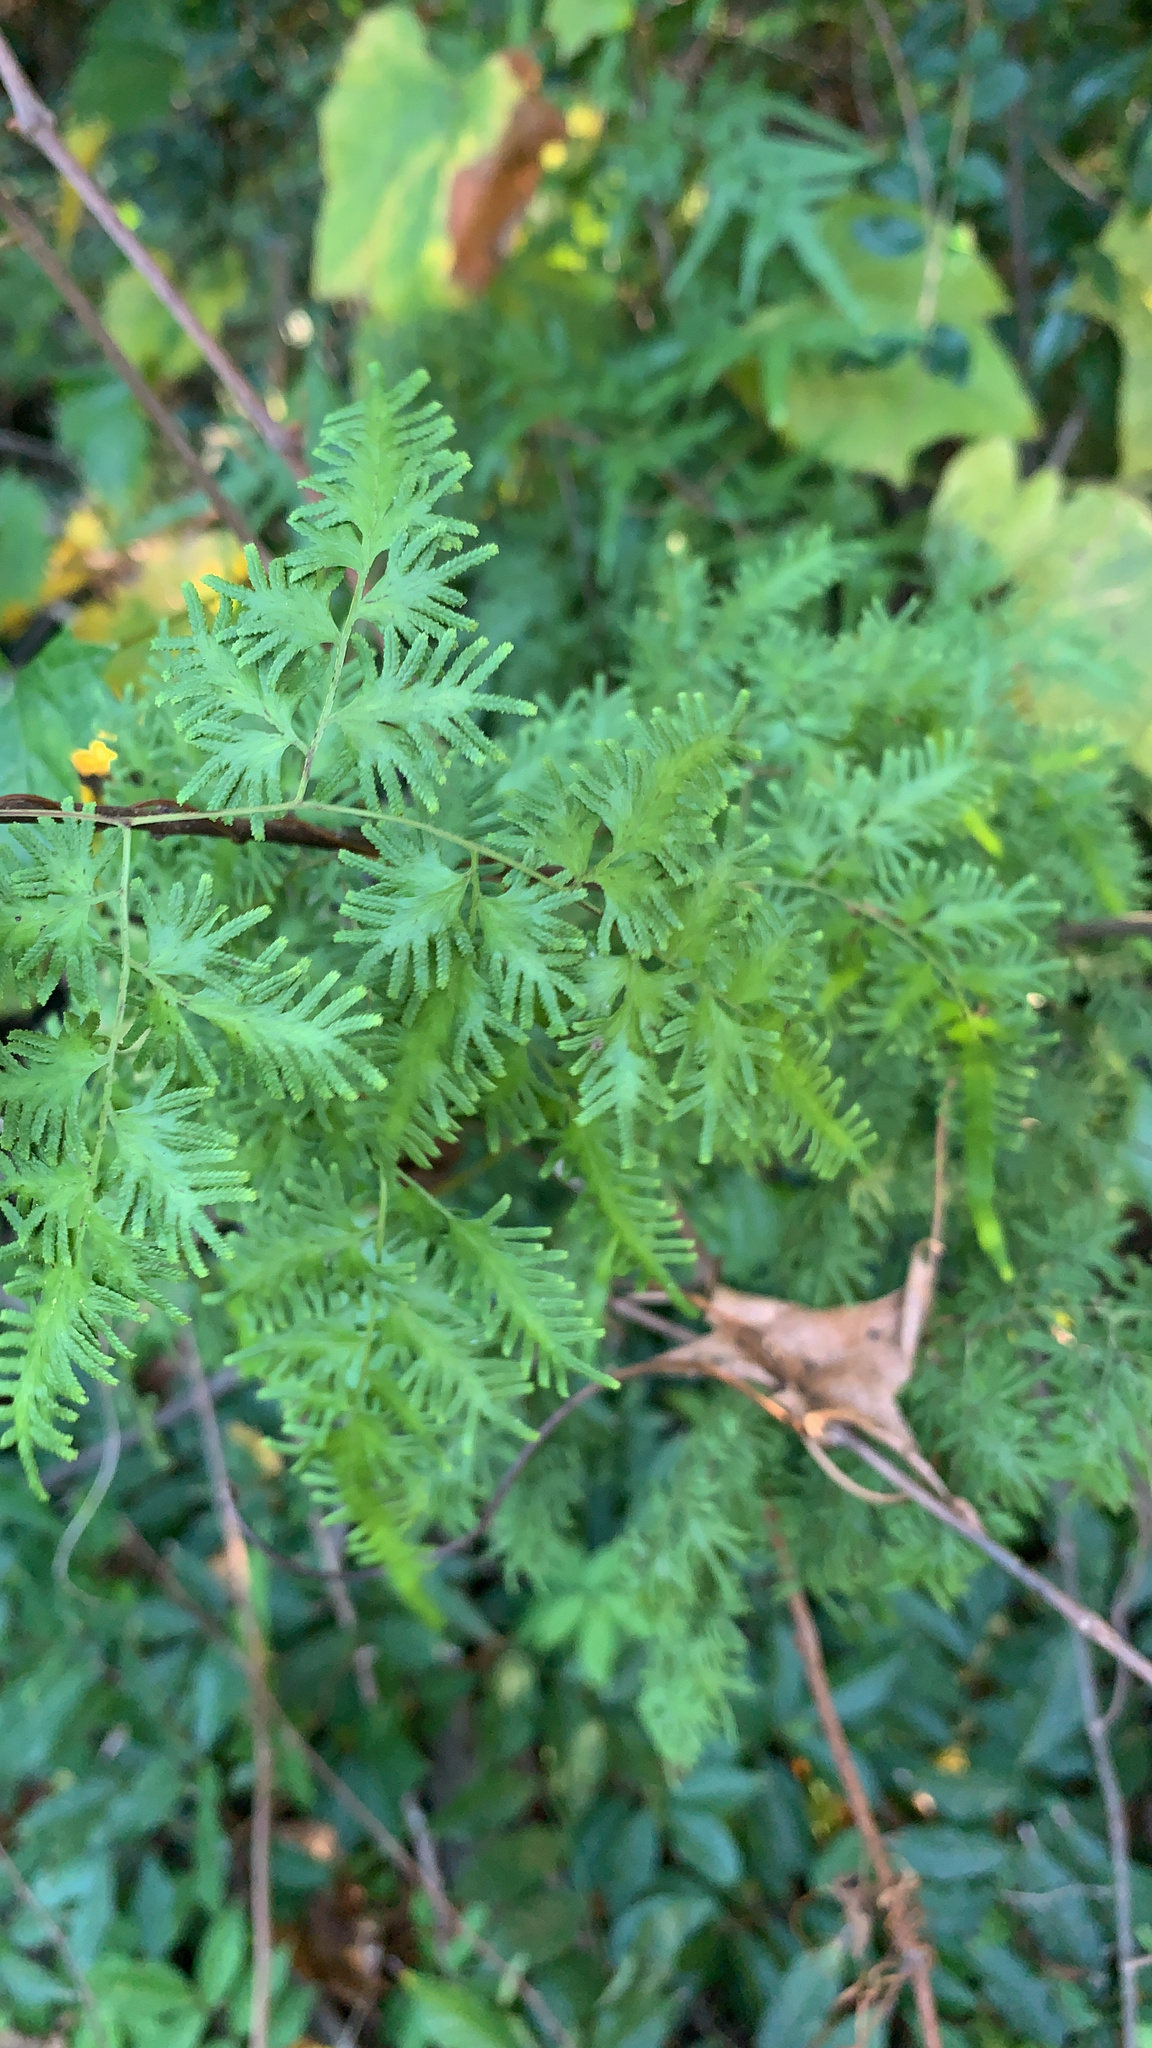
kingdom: Plantae
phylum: Tracheophyta
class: Polypodiopsida
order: Schizaeales
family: Lygodiaceae
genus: Lygodium
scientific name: Lygodium japonicum
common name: Japanese climbing fern
